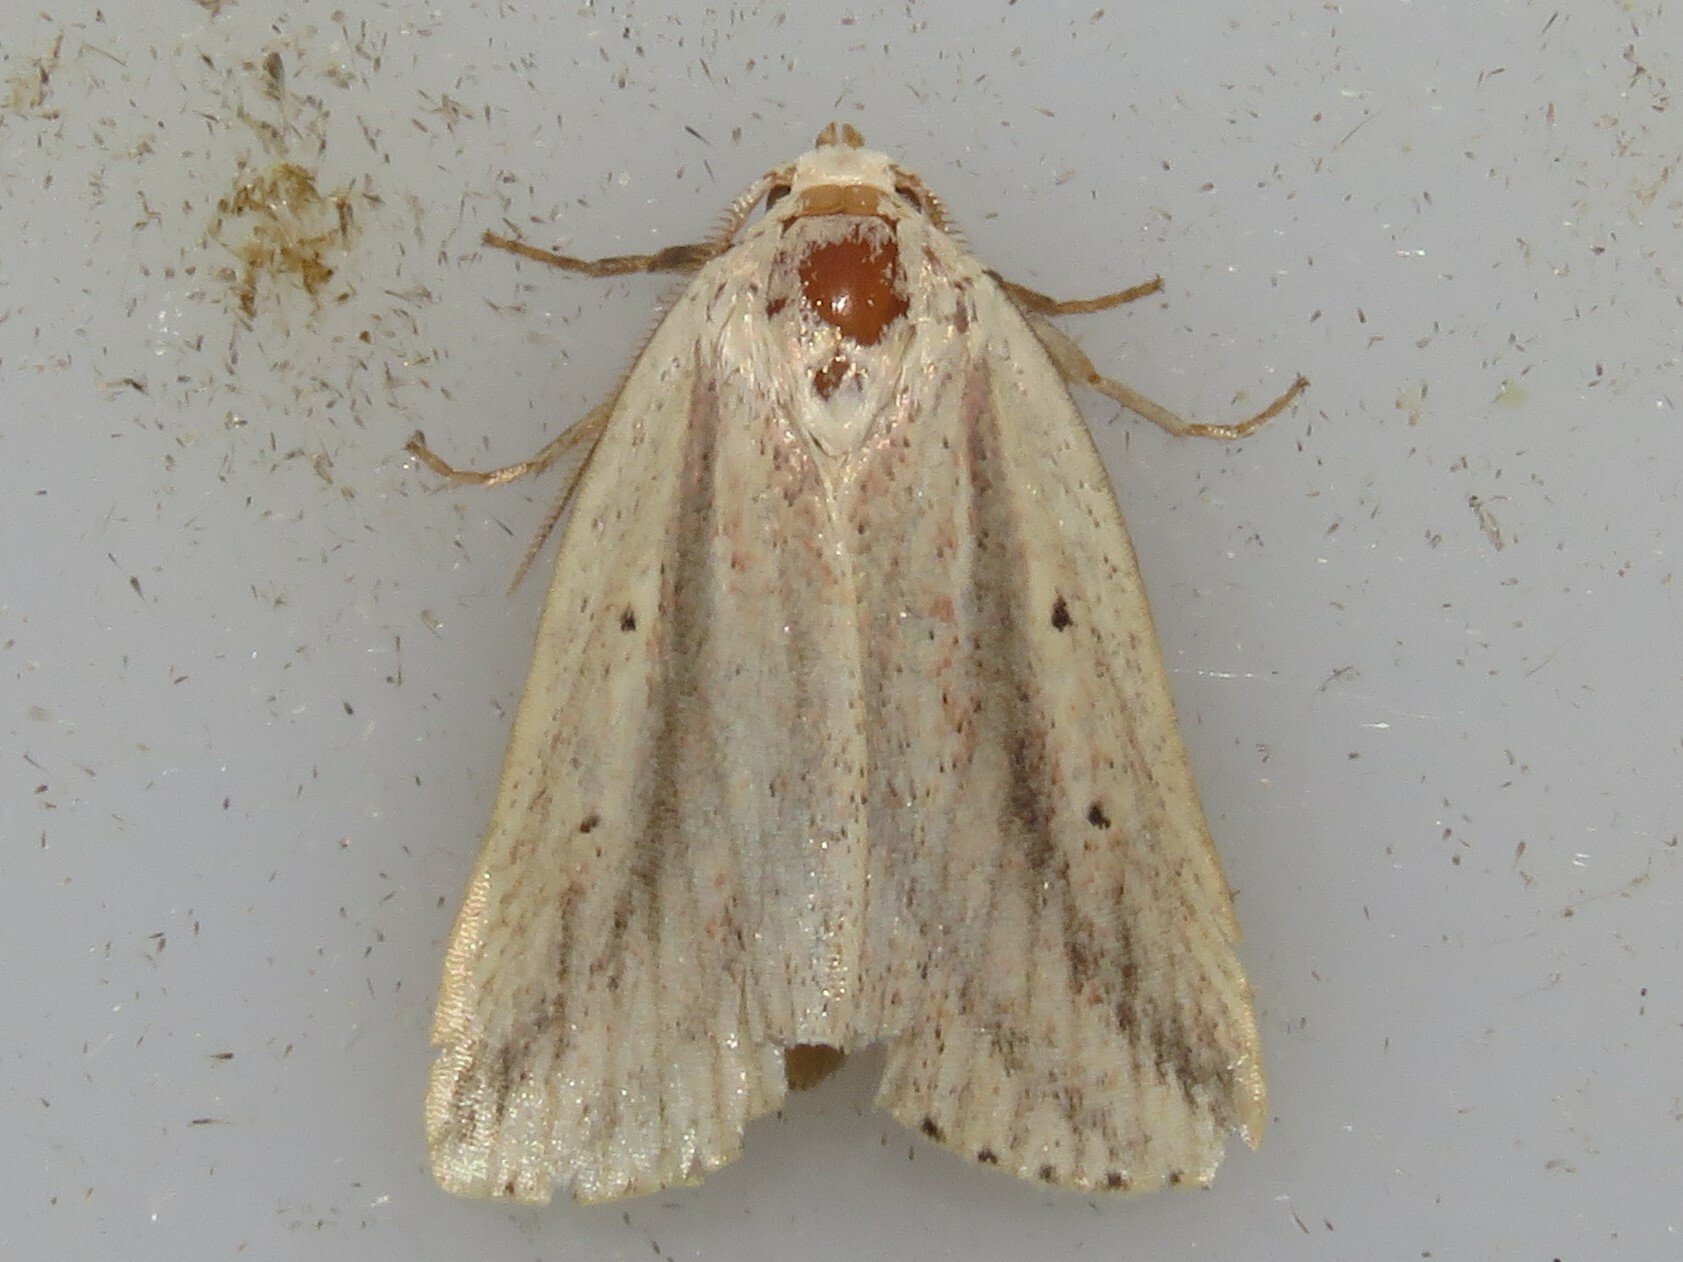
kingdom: Animalia
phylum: Arthropoda
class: Insecta
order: Lepidoptera
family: Noctuidae
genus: Amolita
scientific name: Amolita fessa
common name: Feeble grass moth
